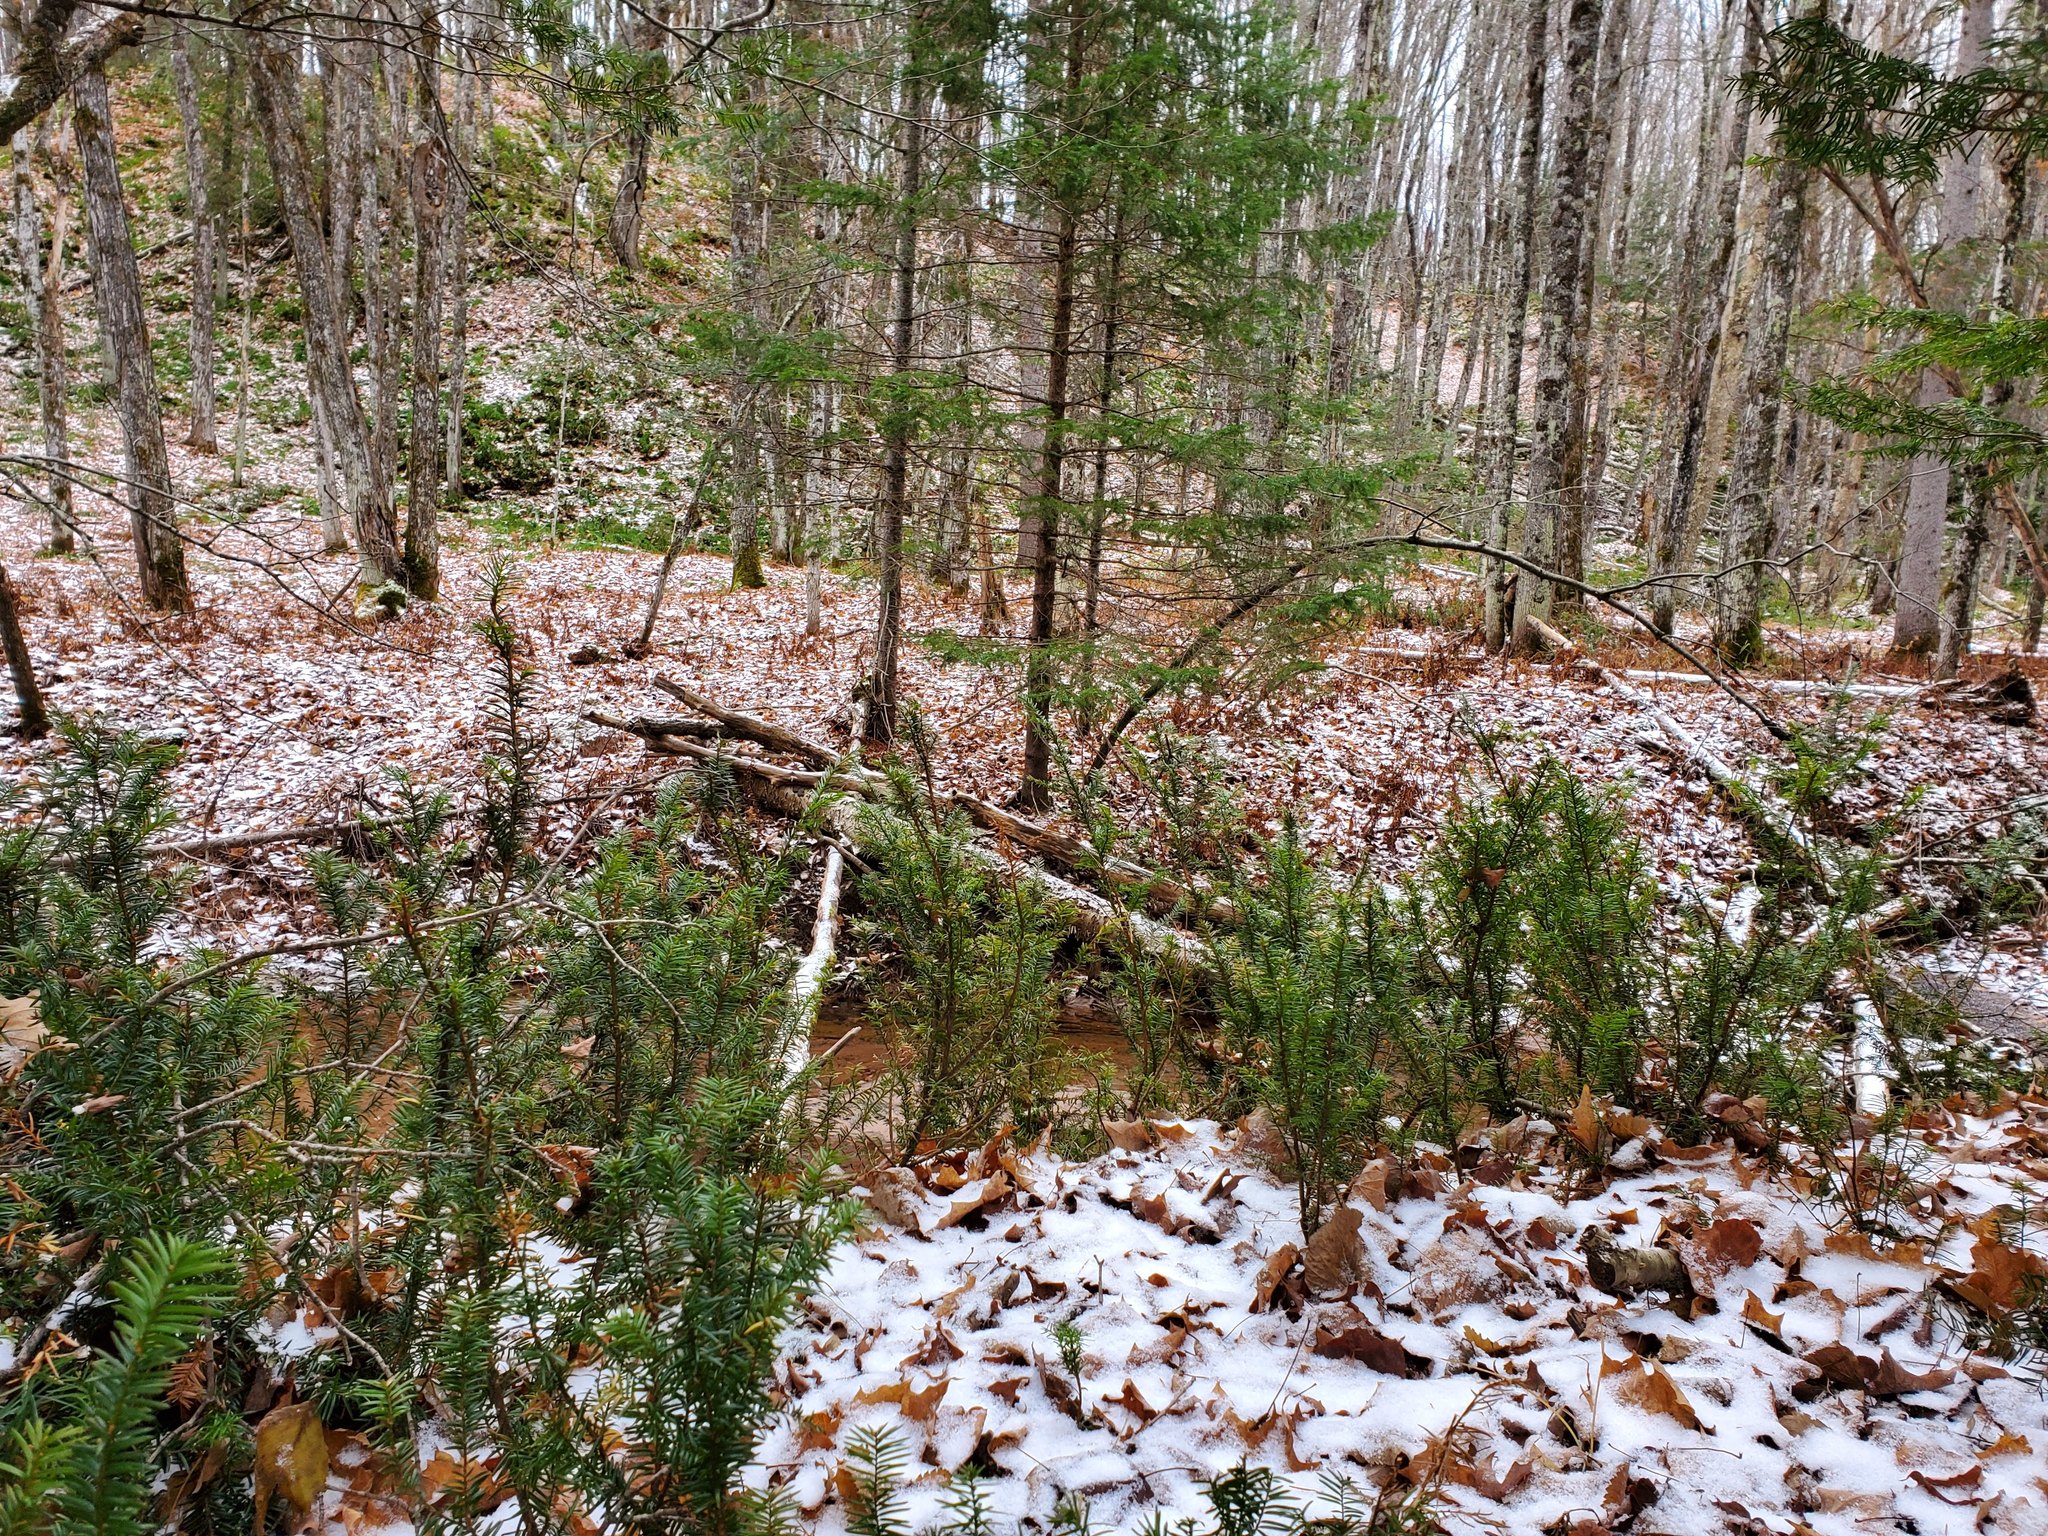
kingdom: Plantae
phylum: Tracheophyta
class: Pinopsida
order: Pinales
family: Taxaceae
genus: Taxus
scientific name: Taxus canadensis
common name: American yew
